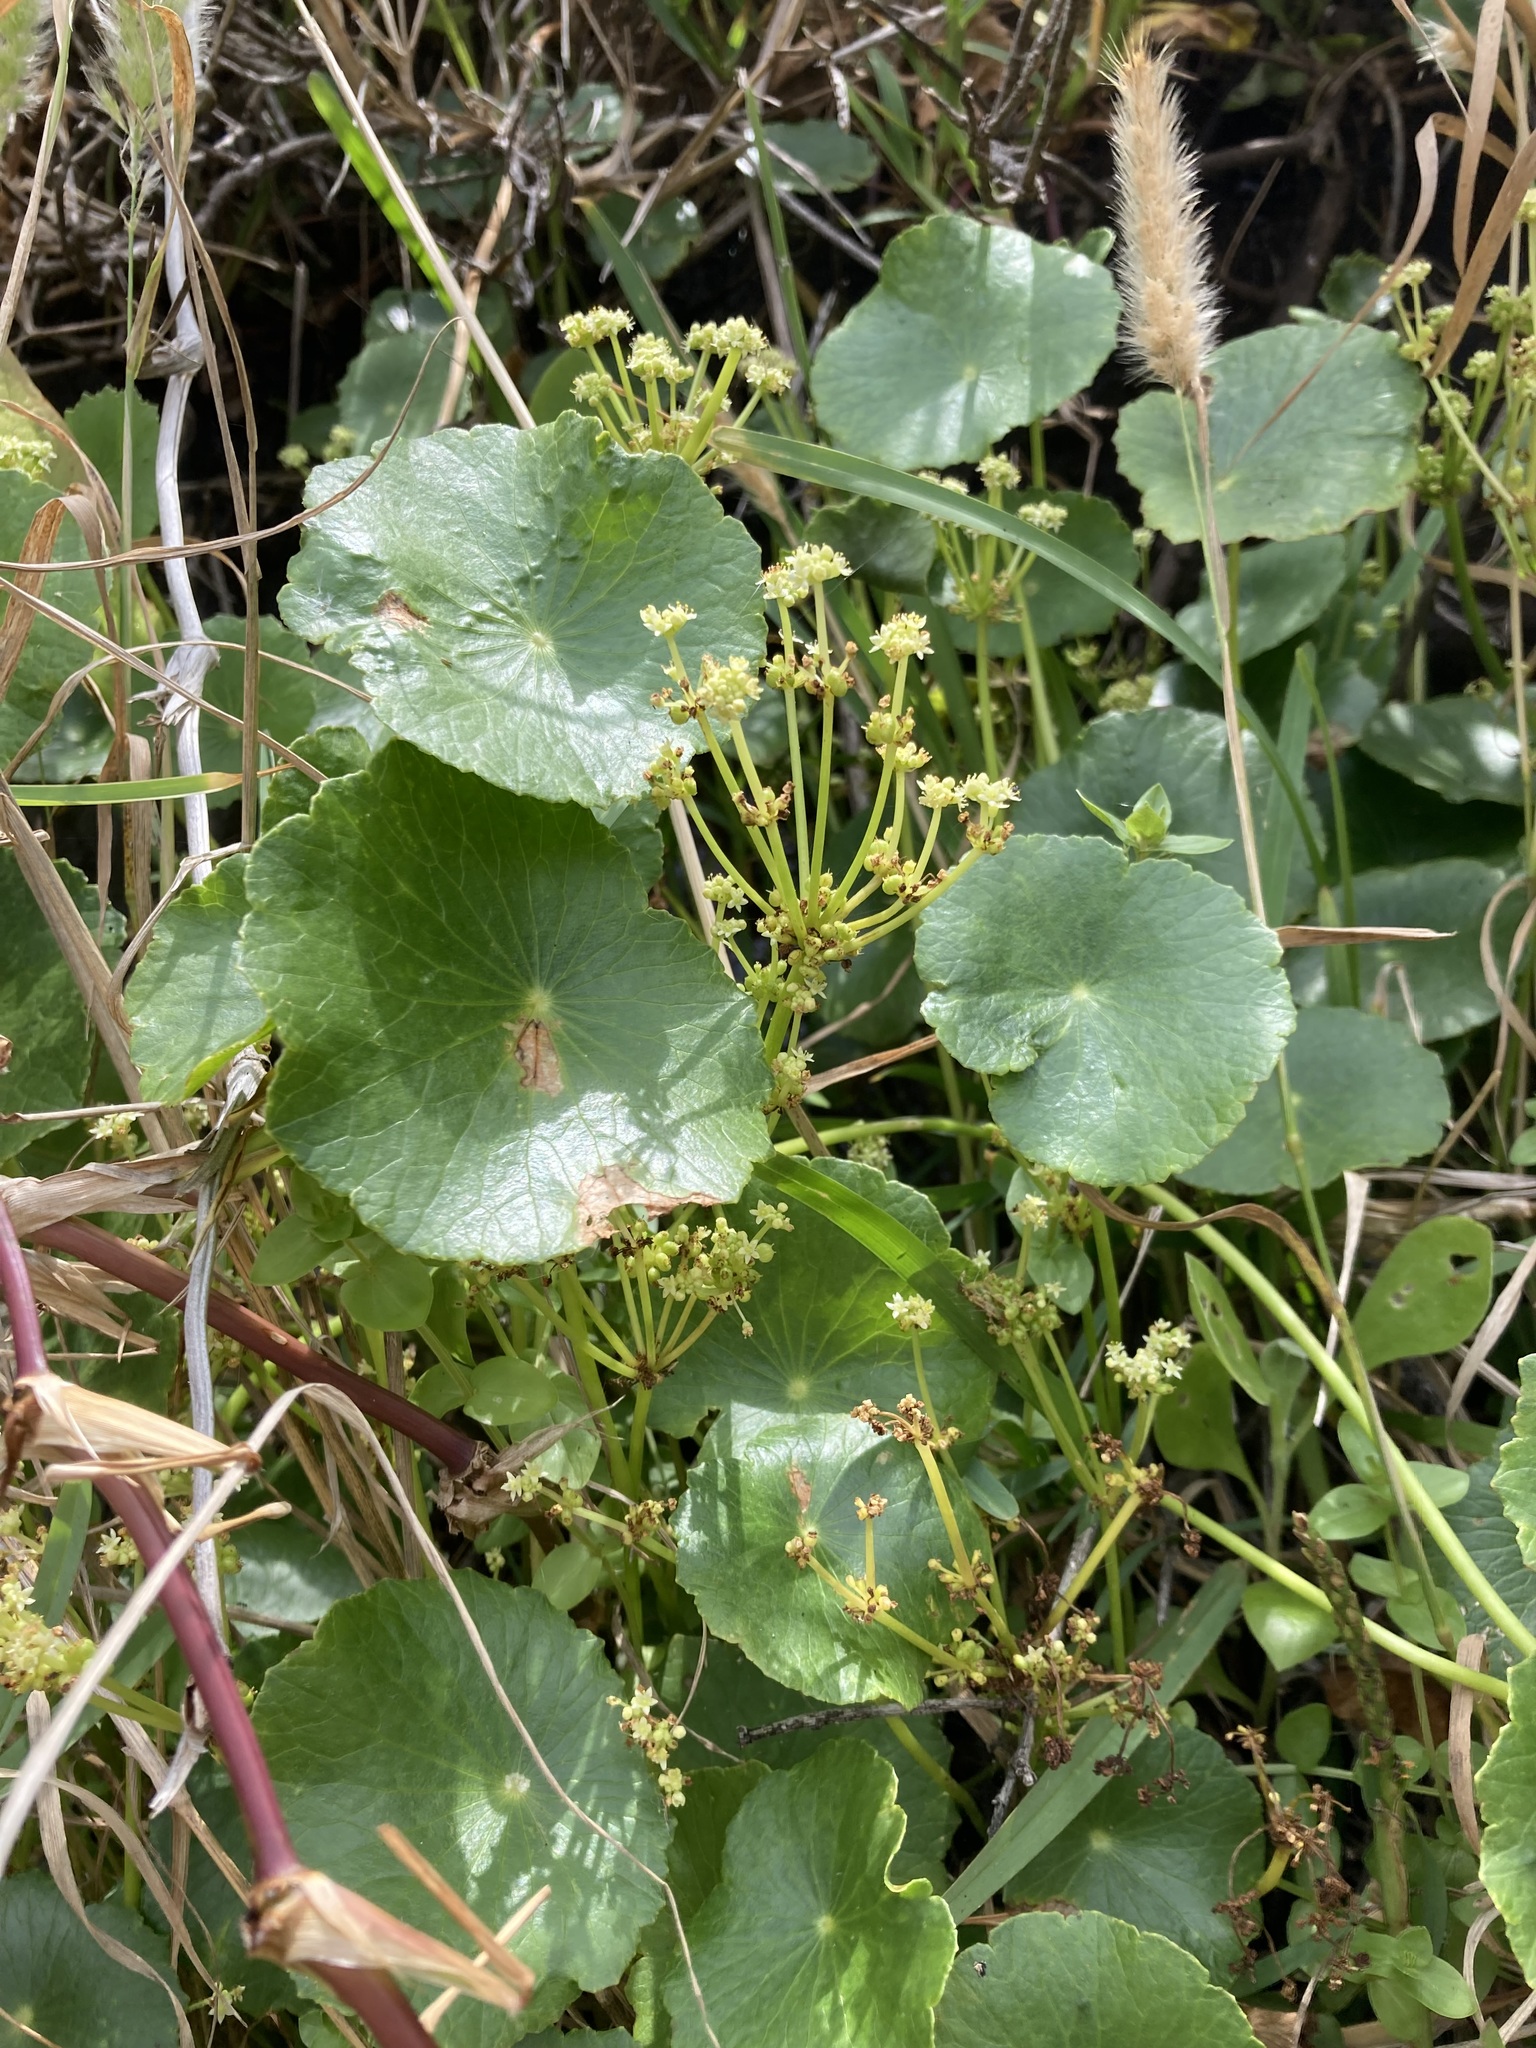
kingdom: Plantae
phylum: Tracheophyta
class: Magnoliopsida
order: Apiales
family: Araliaceae
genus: Hydrocotyle
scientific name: Hydrocotyle bonariensis
